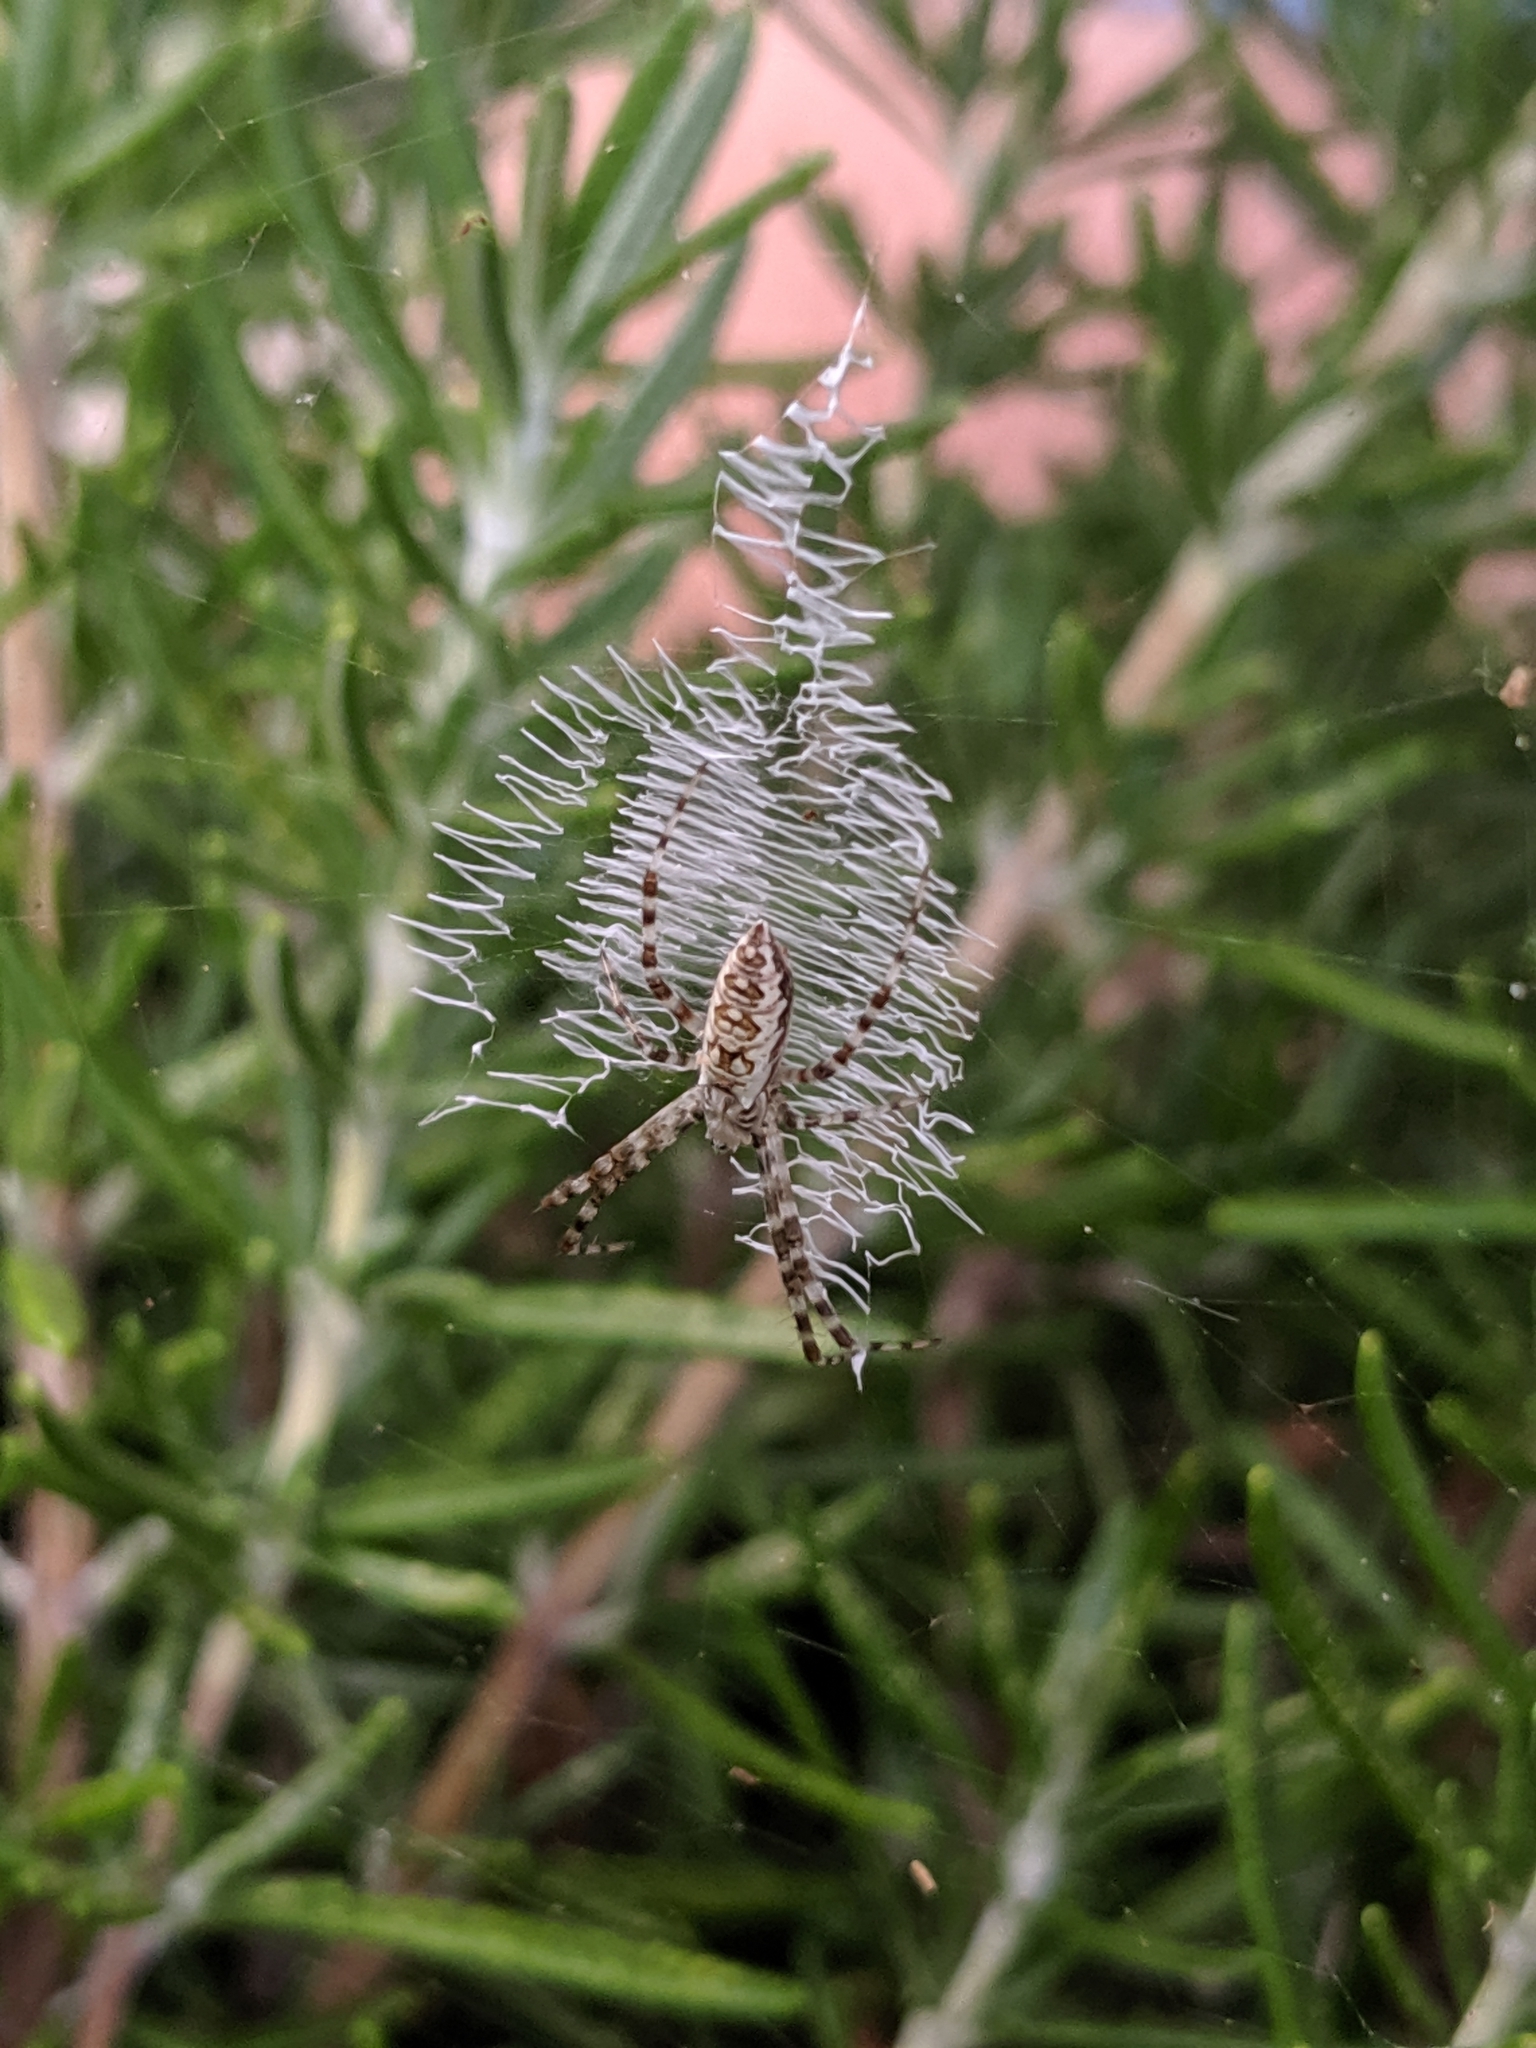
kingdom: Animalia
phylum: Arthropoda
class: Arachnida
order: Araneae
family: Araneidae
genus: Argiope
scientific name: Argiope aurantia
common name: Orb weavers
